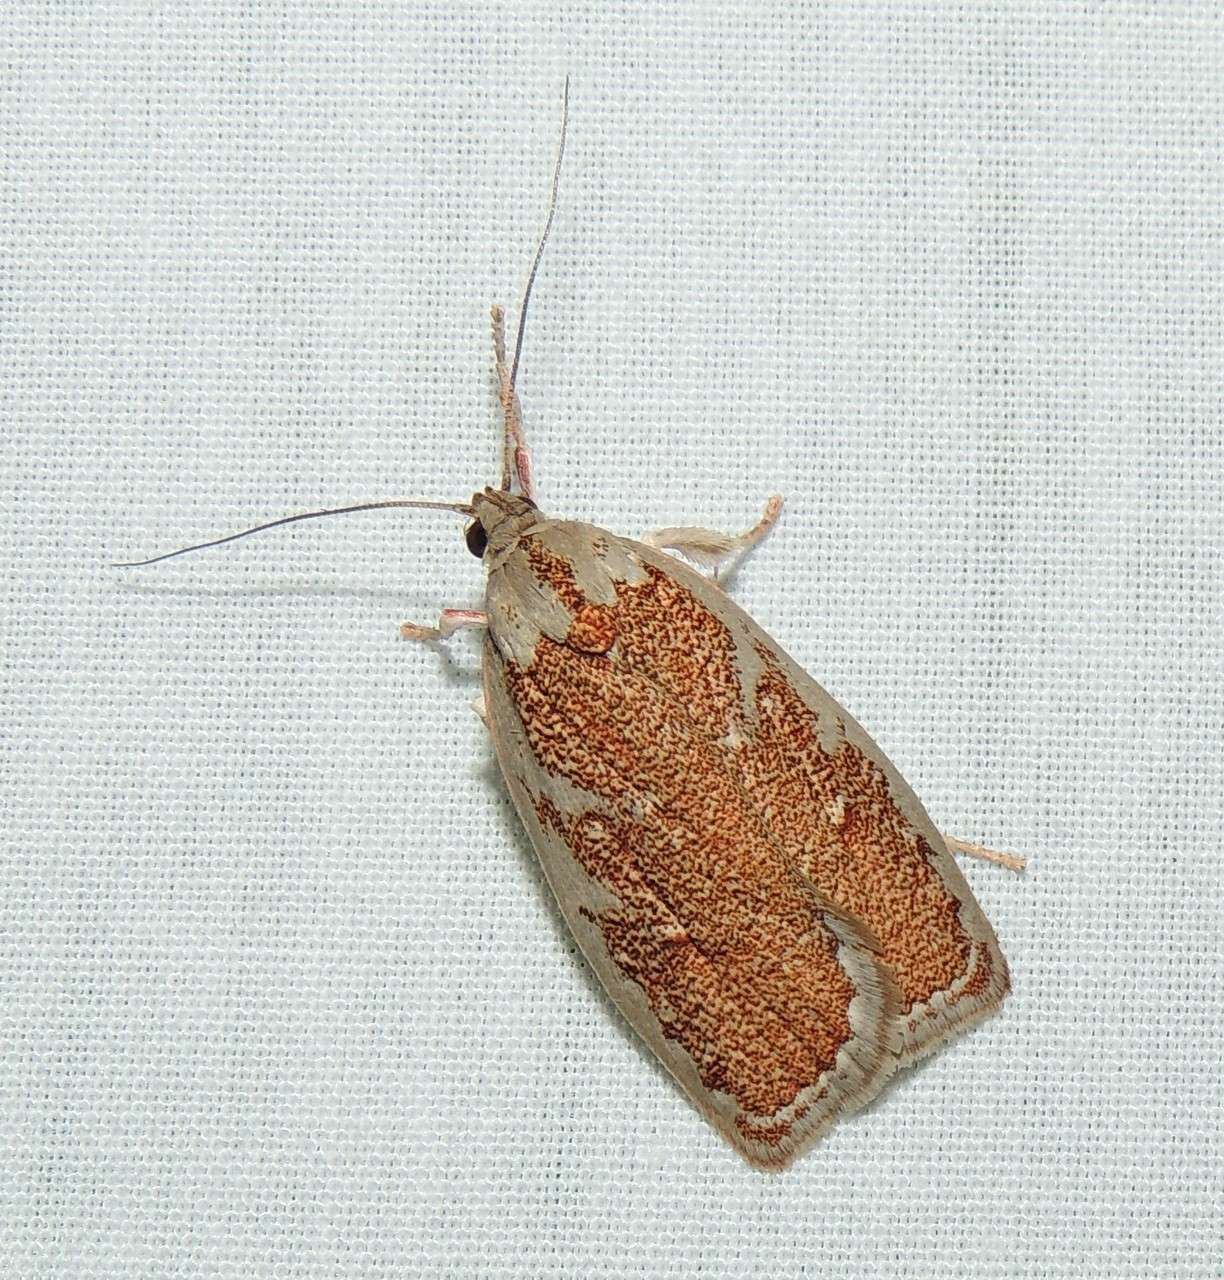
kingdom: Animalia
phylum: Arthropoda
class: Insecta
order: Lepidoptera
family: Oecophoridae
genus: Euchaetis
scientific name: Euchaetis rhizobola
